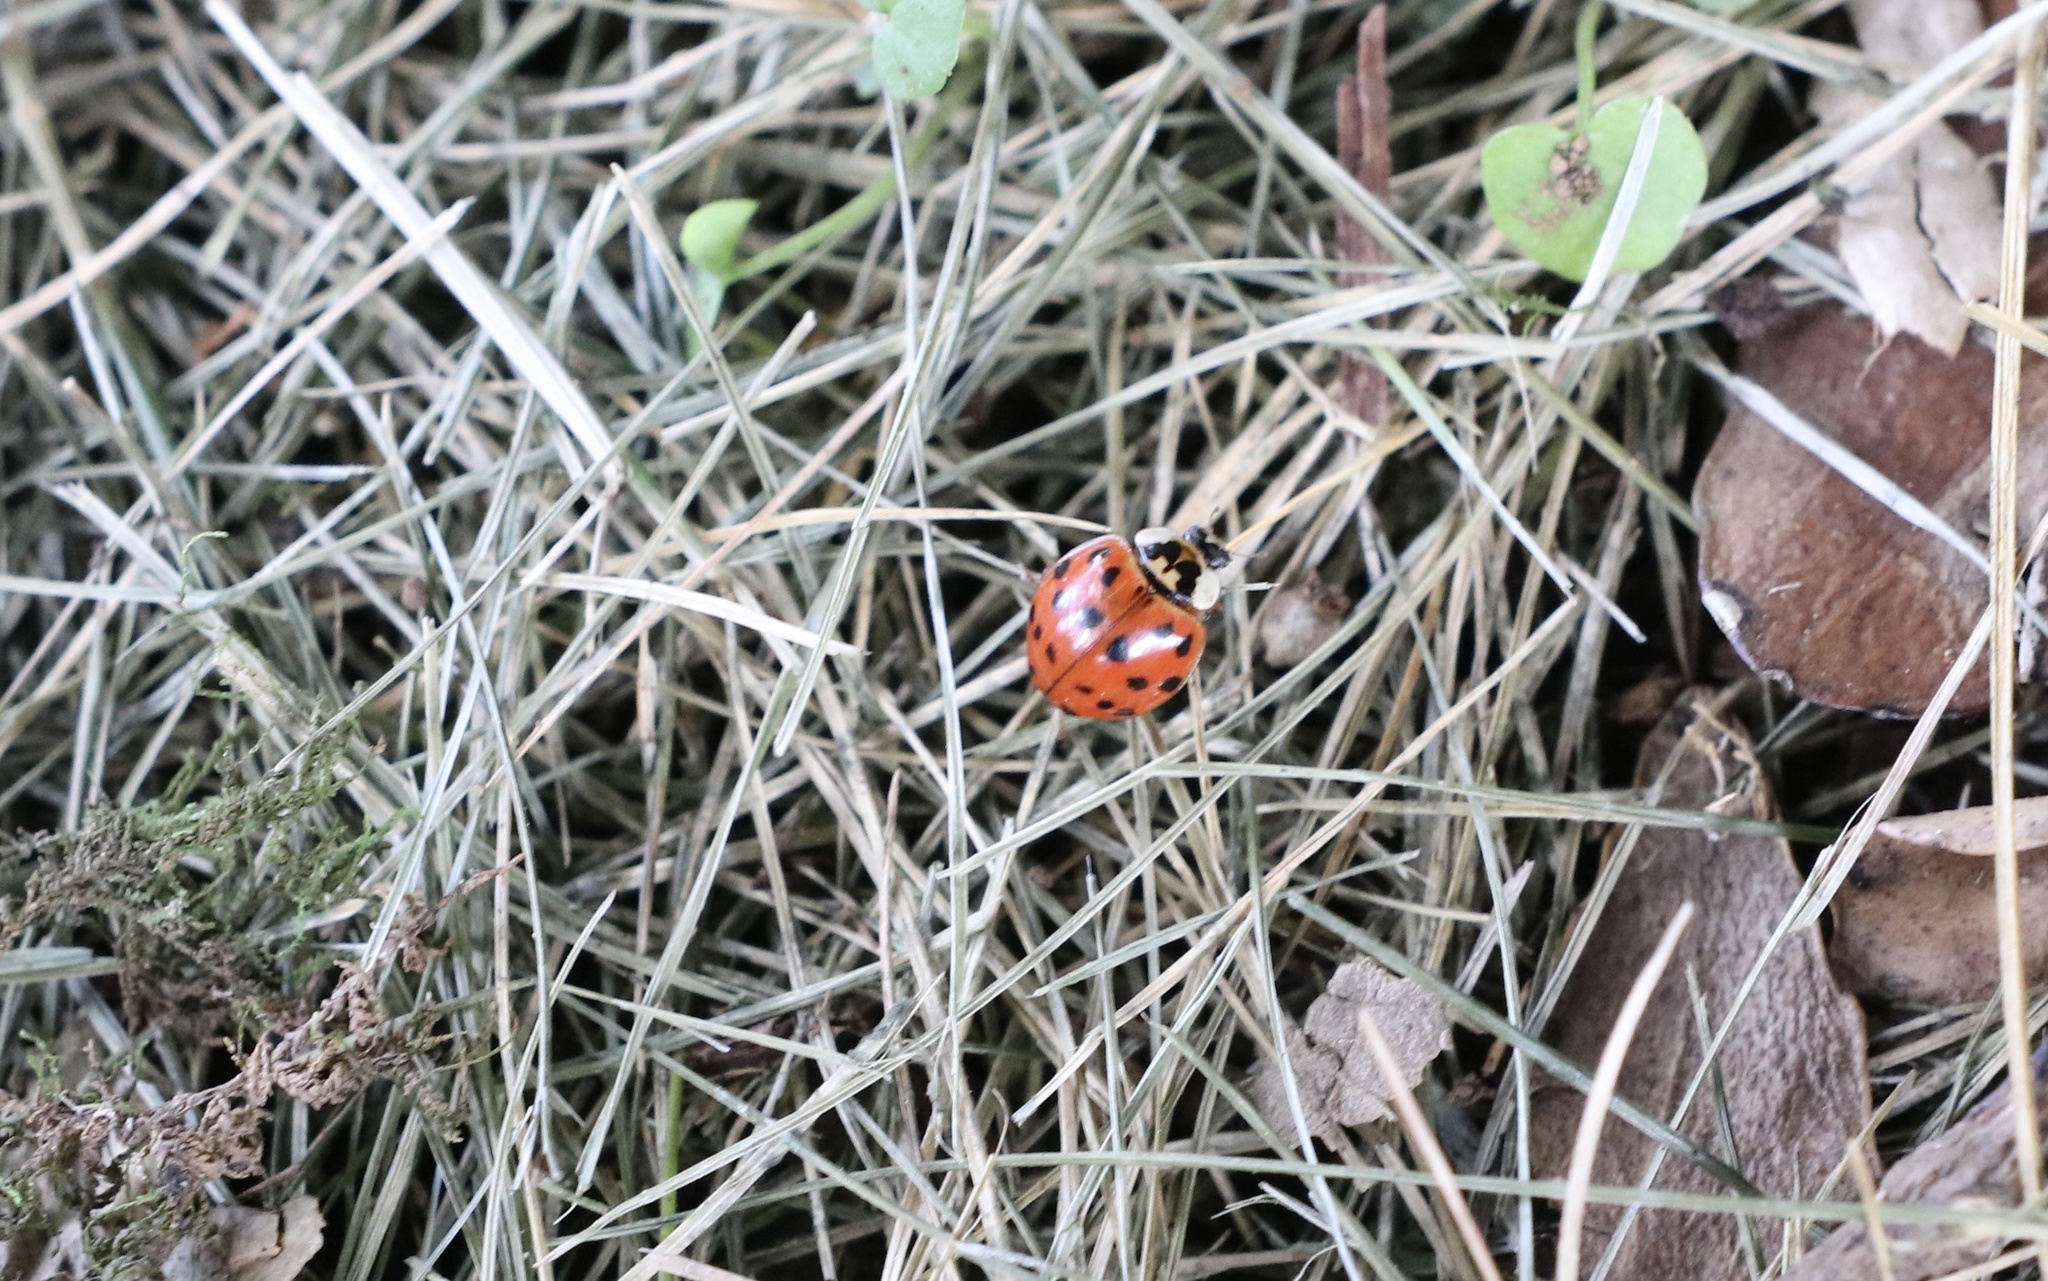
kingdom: Animalia
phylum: Arthropoda
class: Insecta
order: Coleoptera
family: Coccinellidae
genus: Harmonia
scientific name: Harmonia axyridis
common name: Harlequin ladybird
